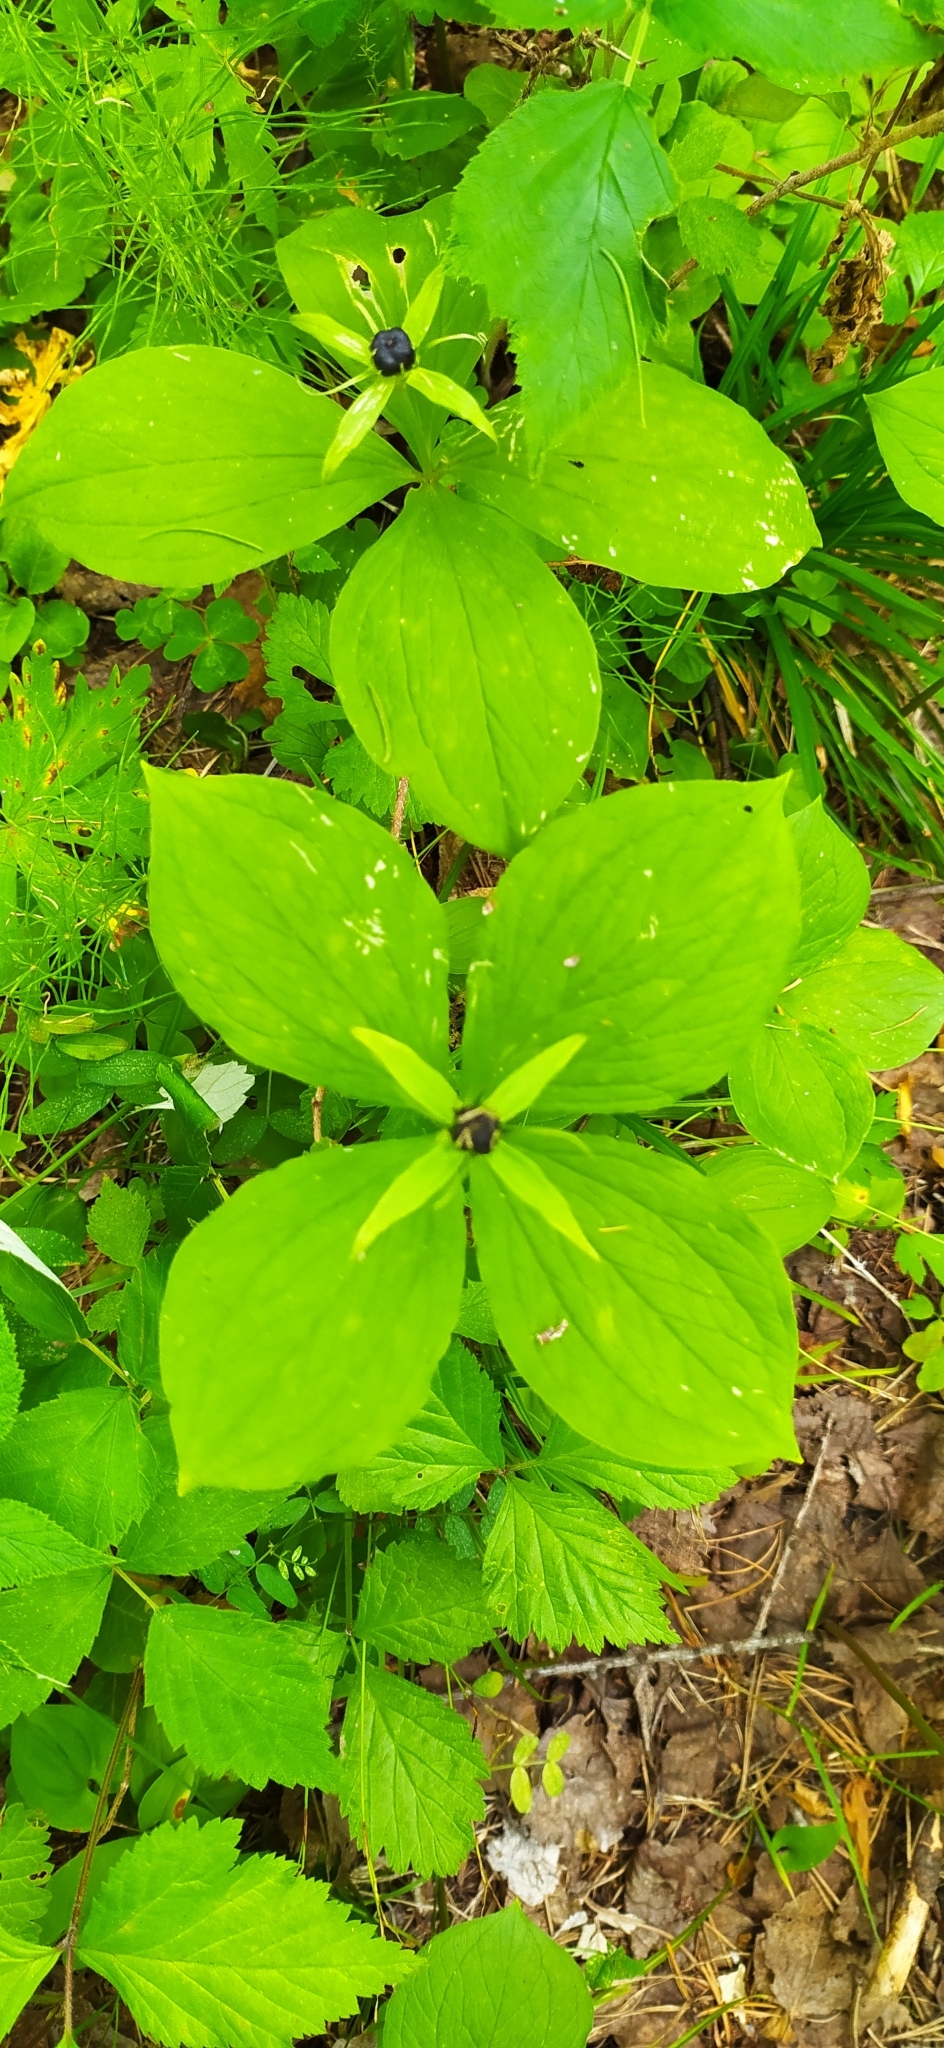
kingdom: Plantae
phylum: Tracheophyta
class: Liliopsida
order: Liliales
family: Melanthiaceae
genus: Paris
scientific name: Paris quadrifolia
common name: Herb-paris
